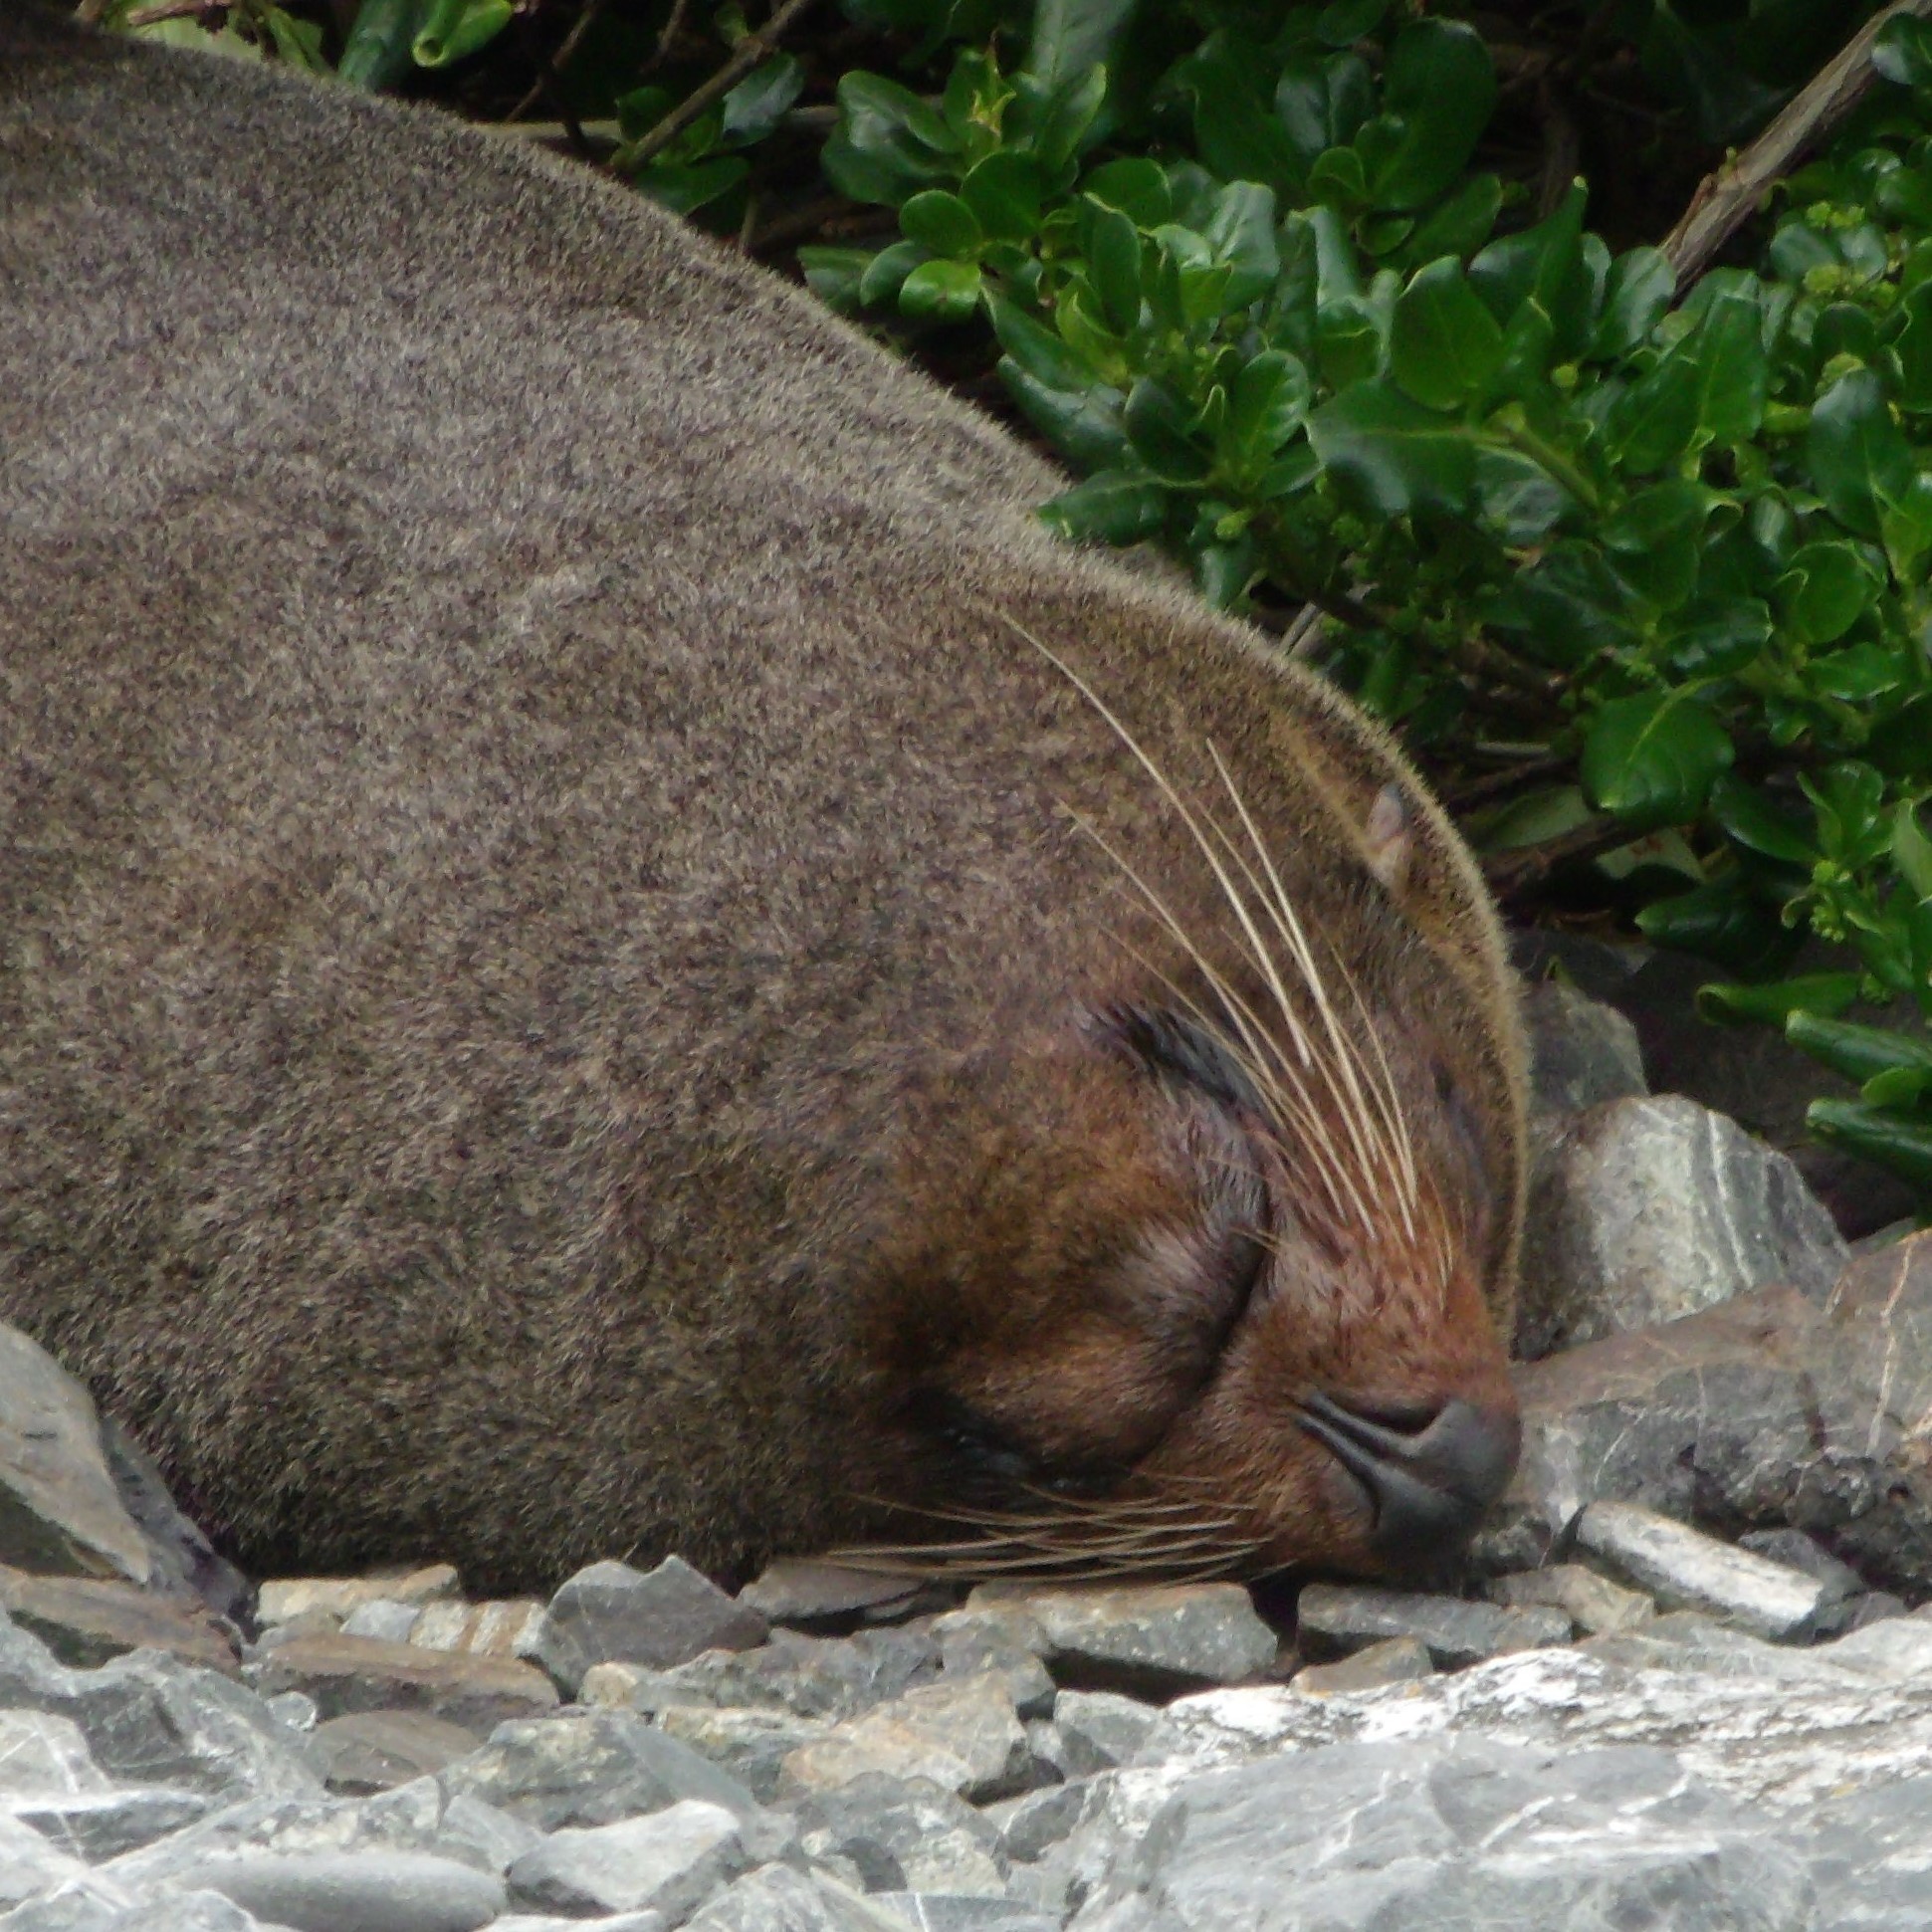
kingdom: Animalia
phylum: Chordata
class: Mammalia
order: Carnivora
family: Otariidae
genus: Arctocephalus
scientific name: Arctocephalus forsteri
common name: New zealand fur seal
